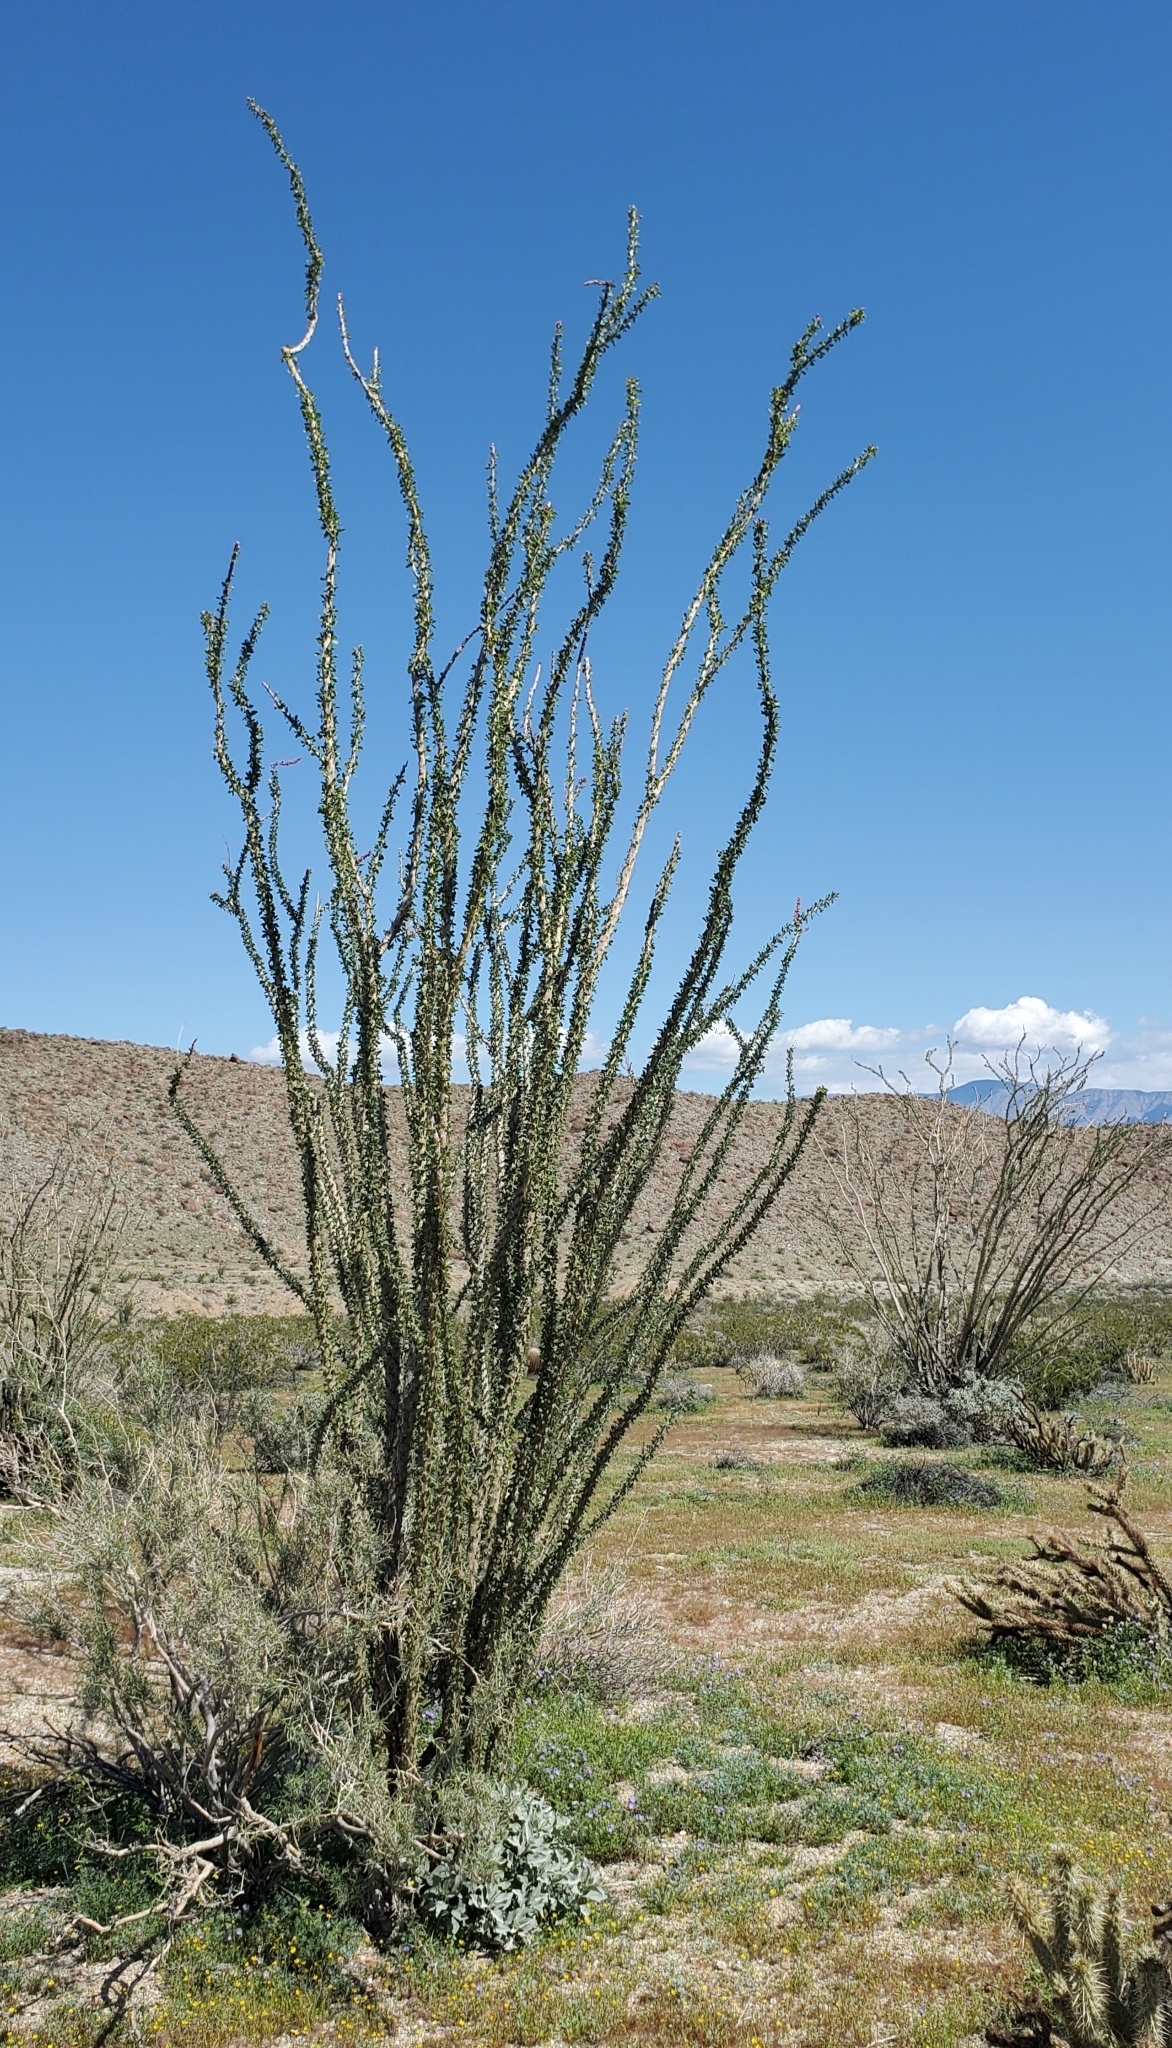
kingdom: Plantae
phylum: Tracheophyta
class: Magnoliopsida
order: Ericales
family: Fouquieriaceae
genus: Fouquieria
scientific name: Fouquieria splendens
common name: Vine-cactus
